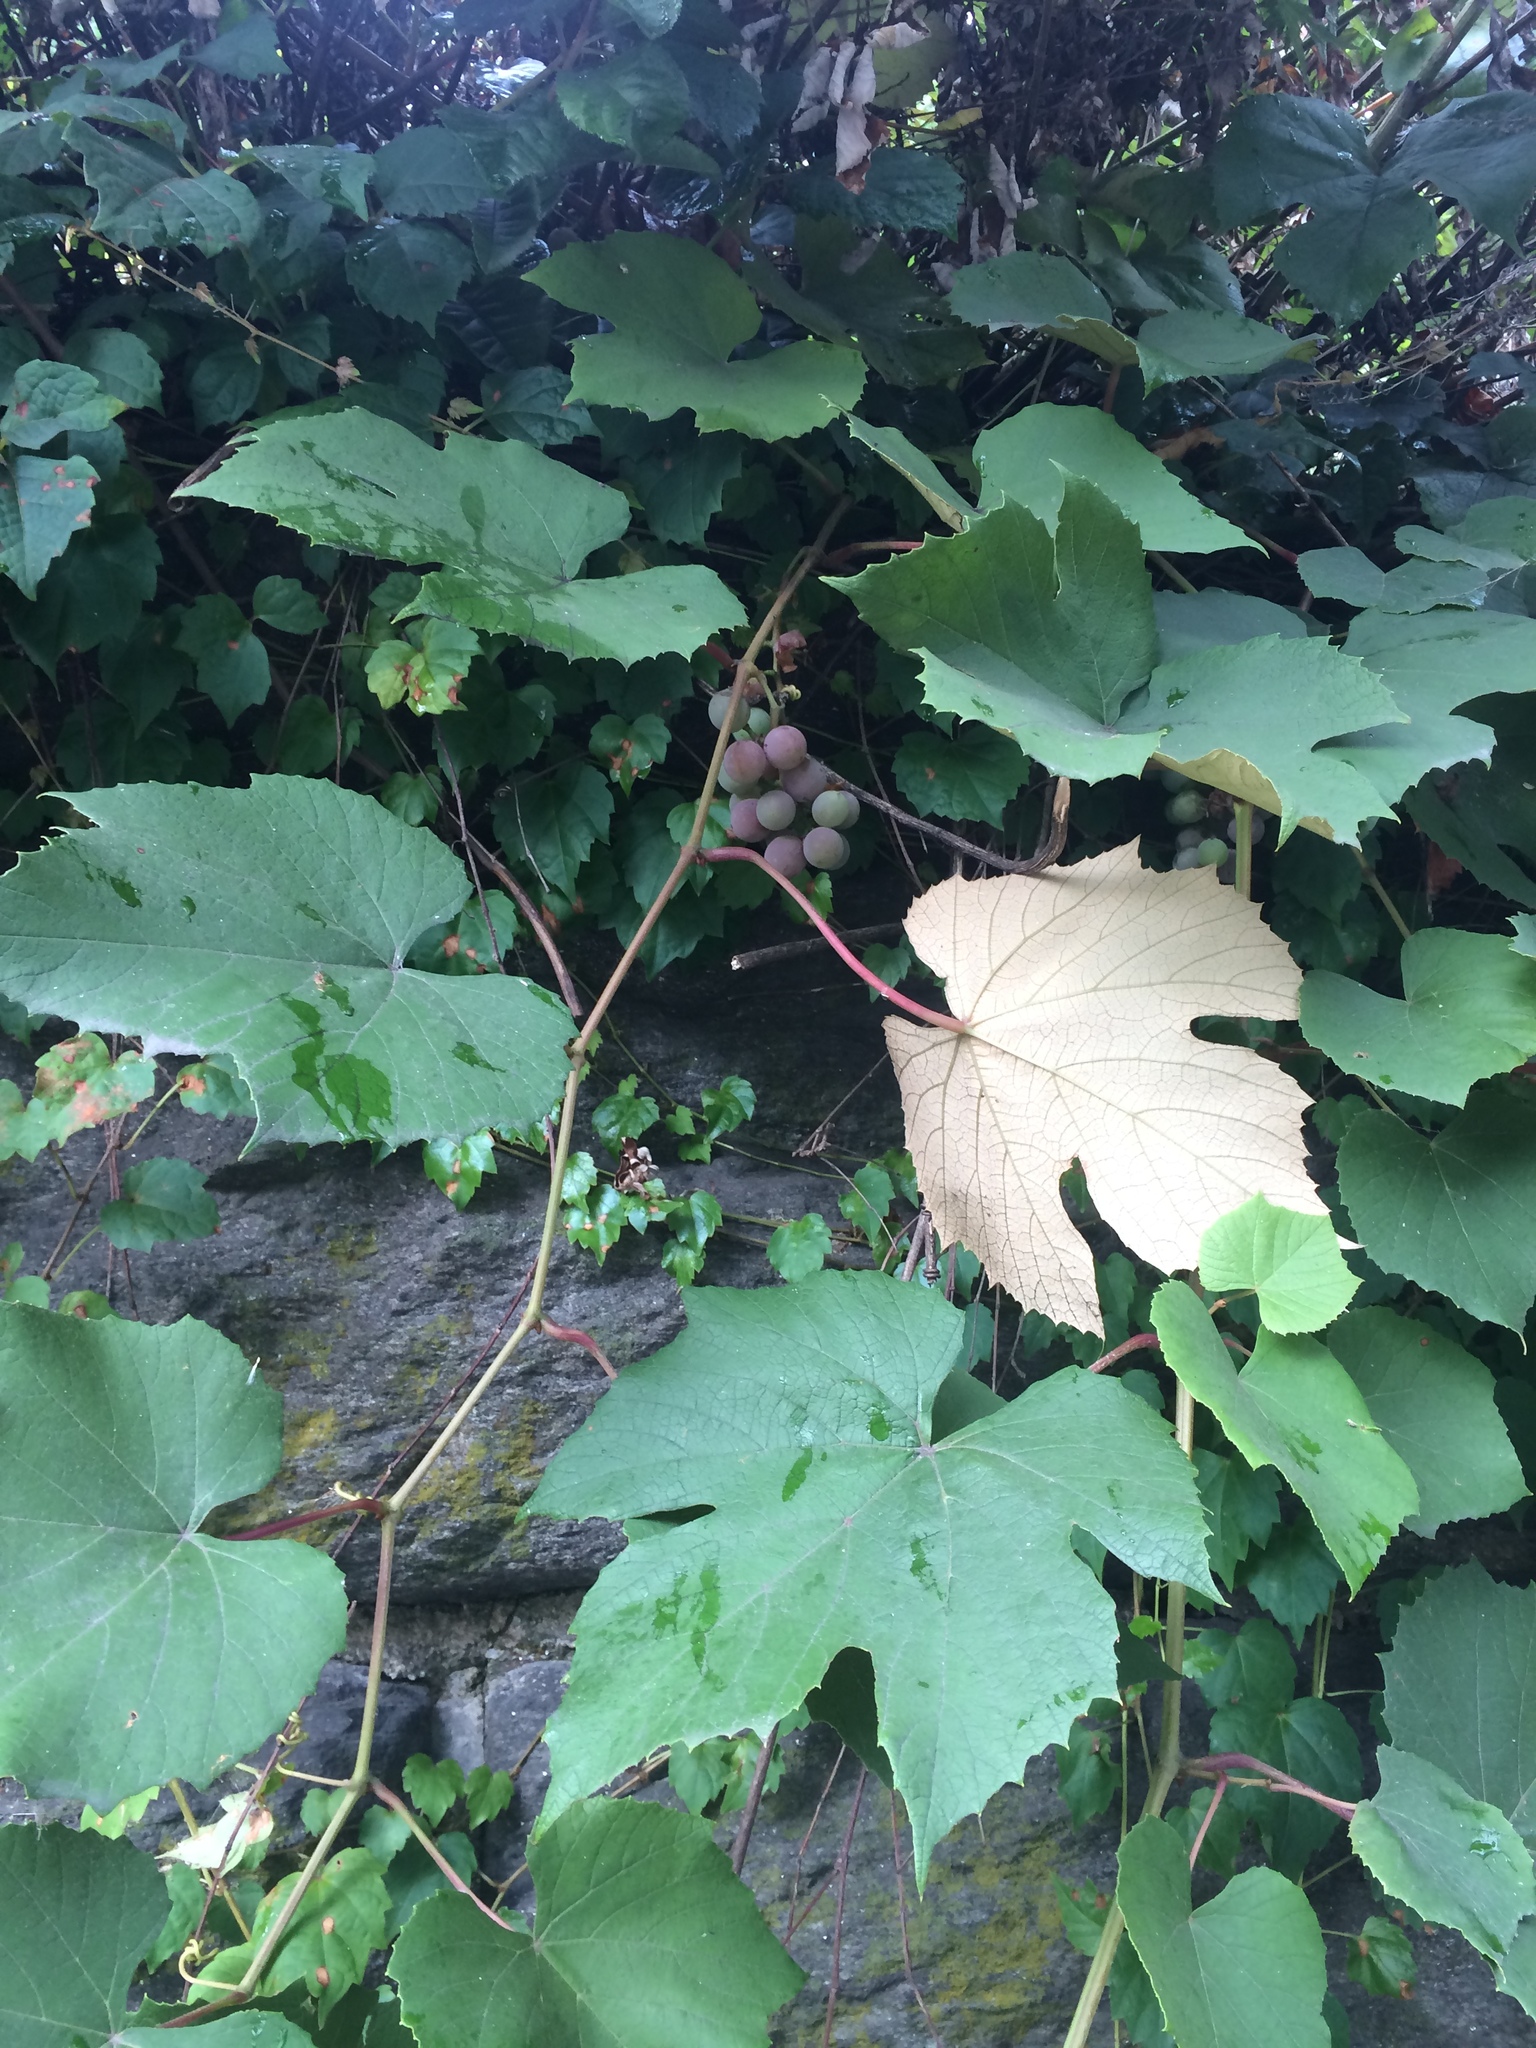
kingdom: Plantae
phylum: Tracheophyta
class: Magnoliopsida
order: Vitales
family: Vitaceae
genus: Vitis
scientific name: Vitis labrusca
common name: Concord grape
